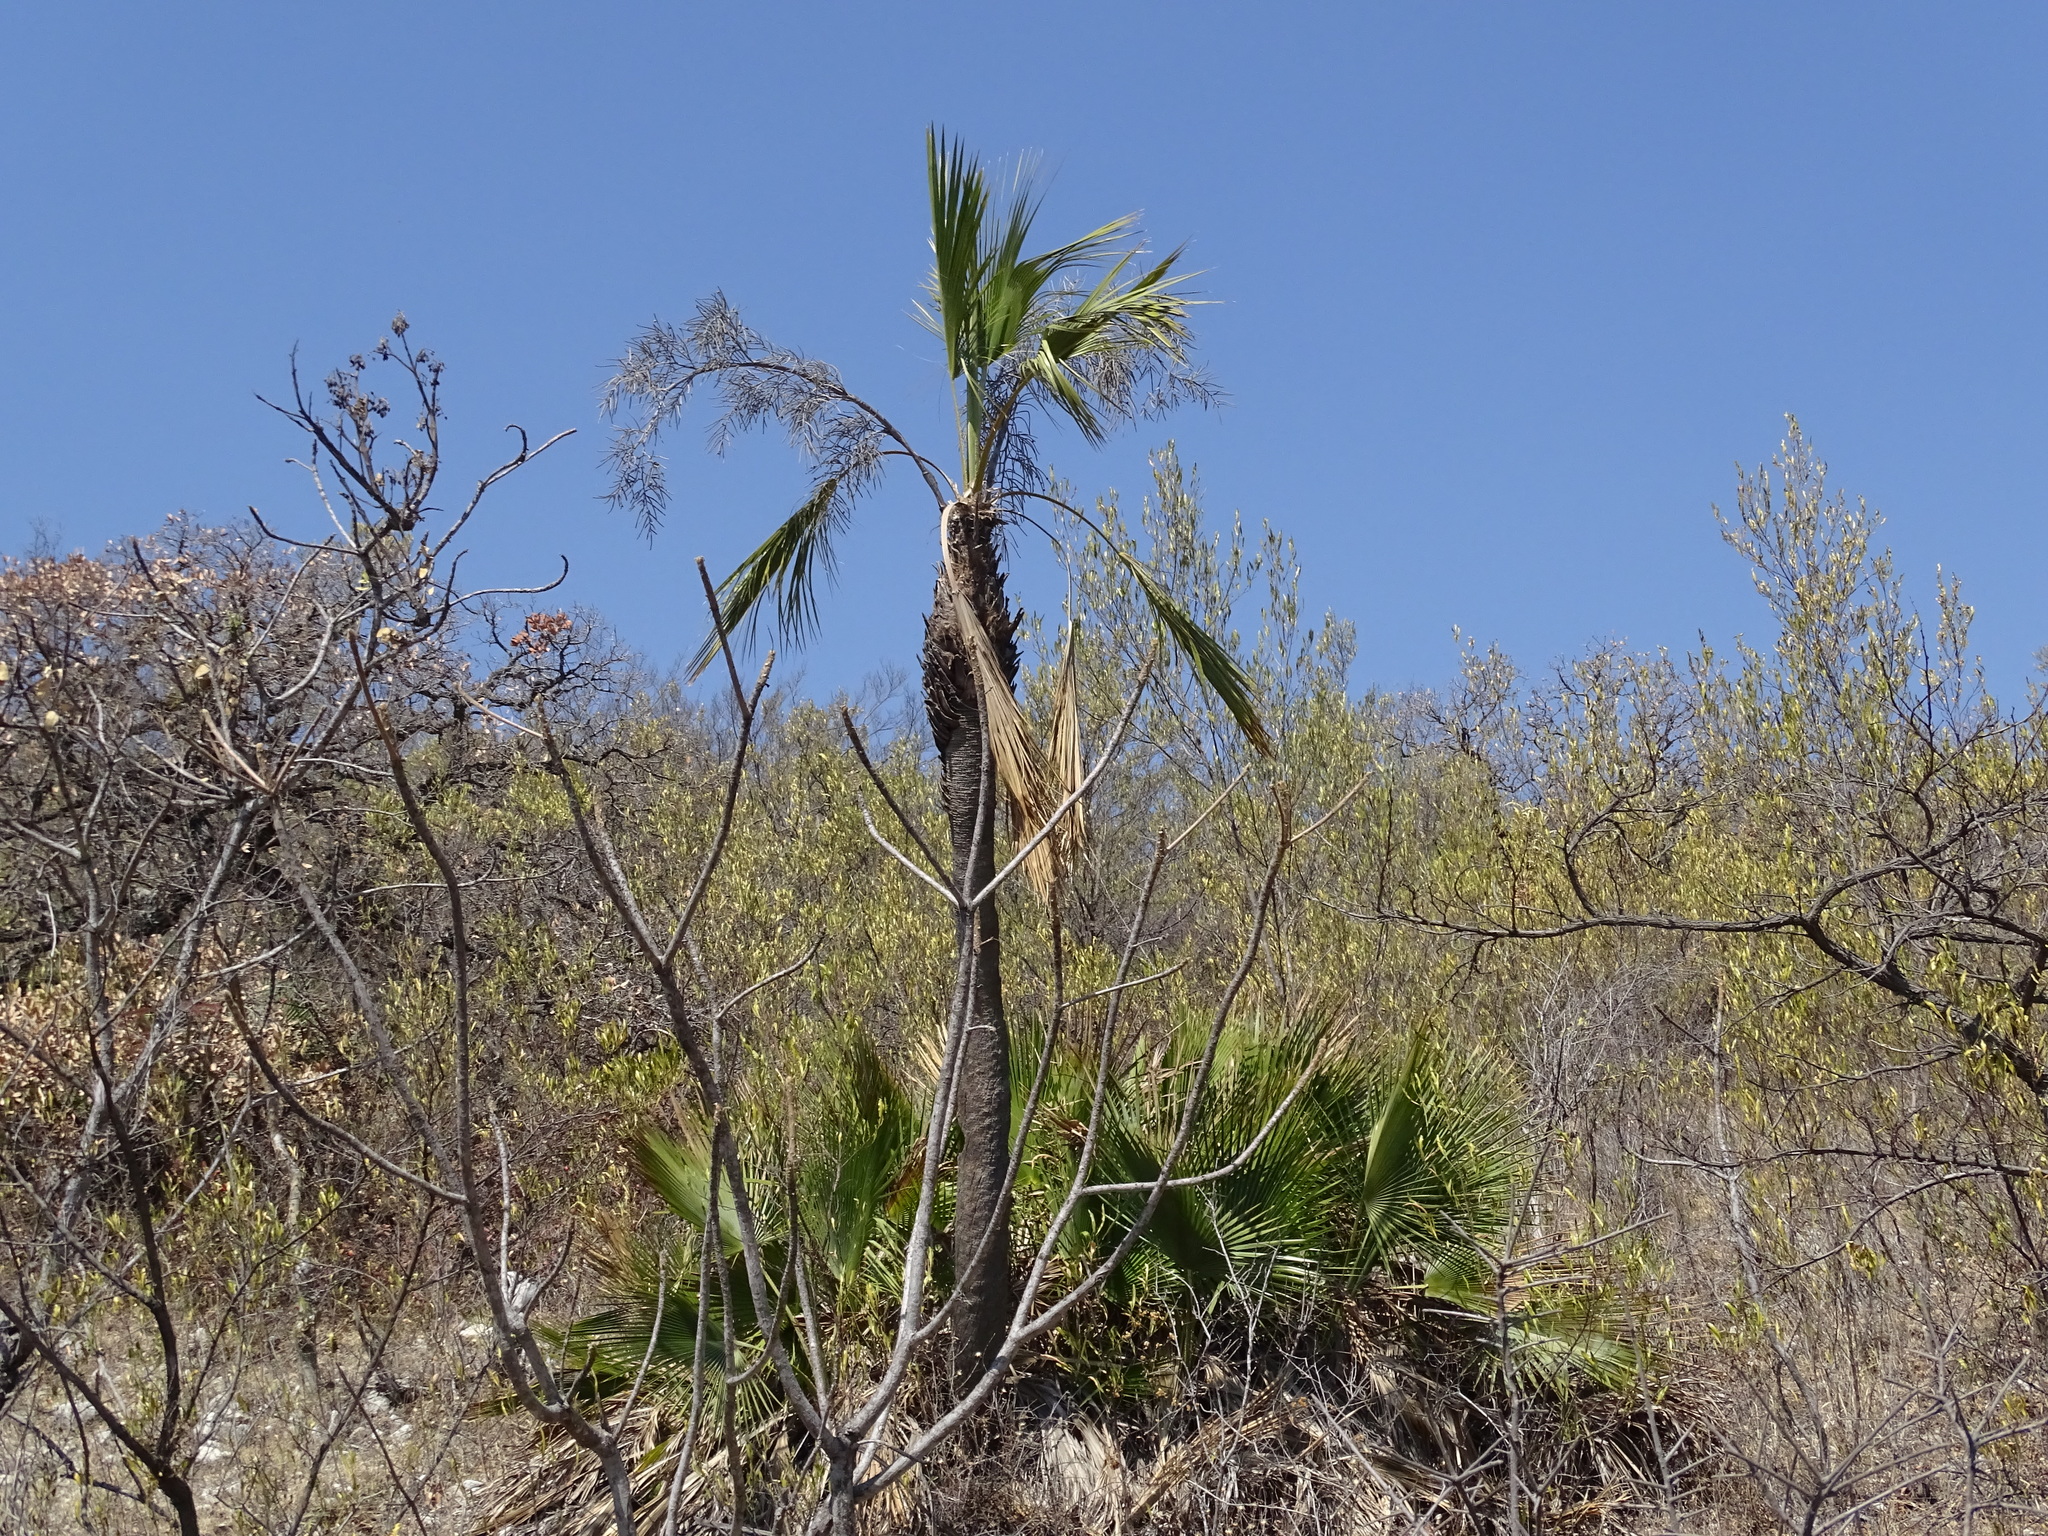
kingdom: Plantae
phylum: Tracheophyta
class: Liliopsida
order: Arecales
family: Arecaceae
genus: Brahea
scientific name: Brahea dulcis
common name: Apak palm
